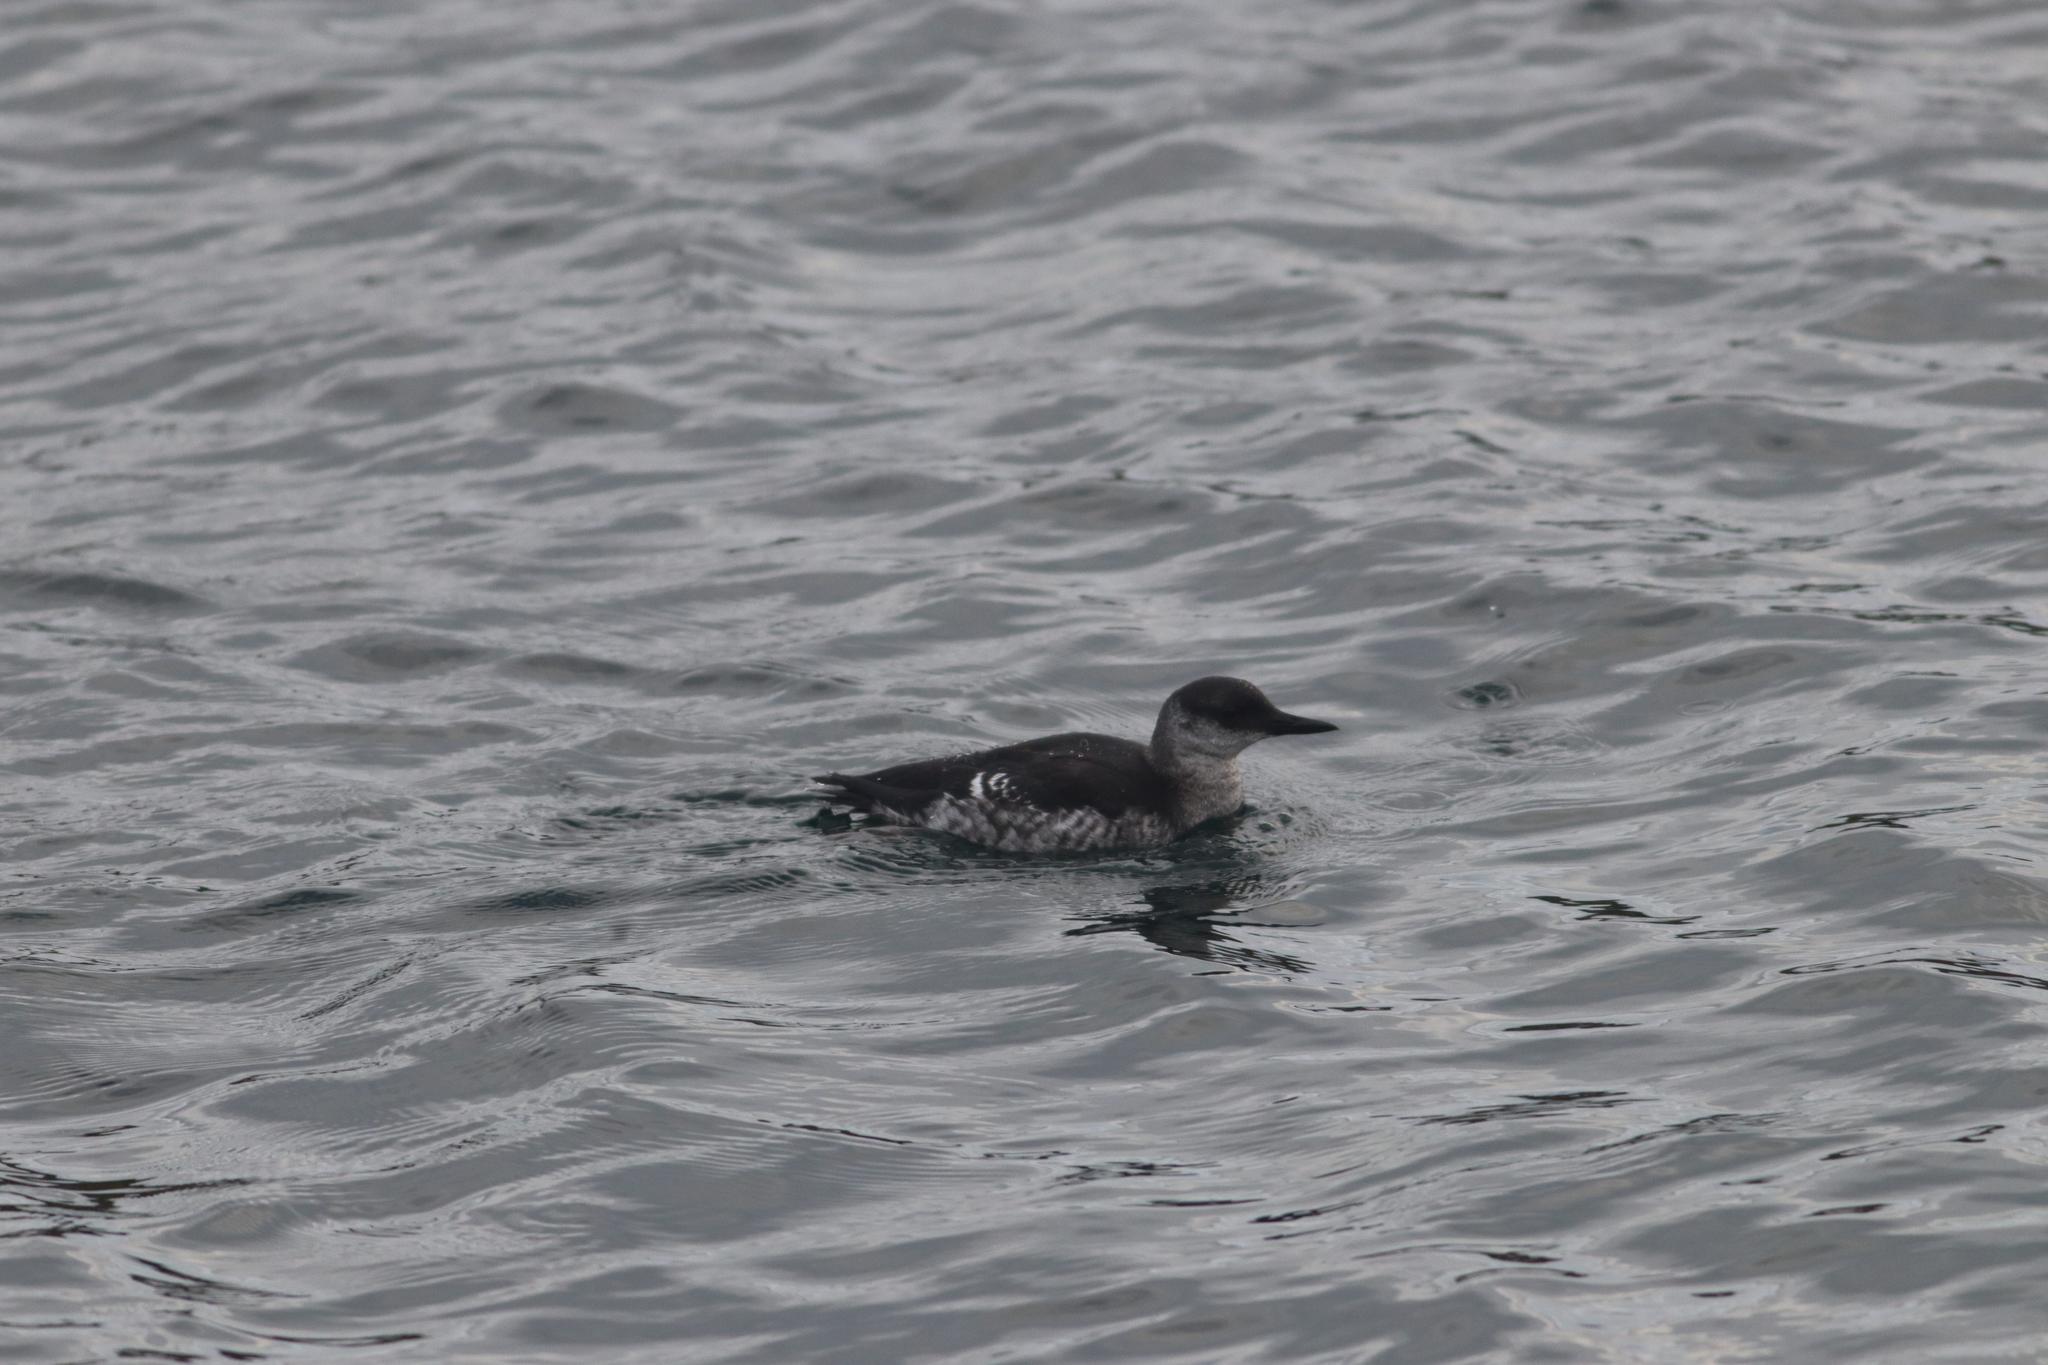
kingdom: Animalia
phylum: Chordata
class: Aves
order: Charadriiformes
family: Alcidae
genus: Cepphus
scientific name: Cepphus grylle
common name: Black guillemot
